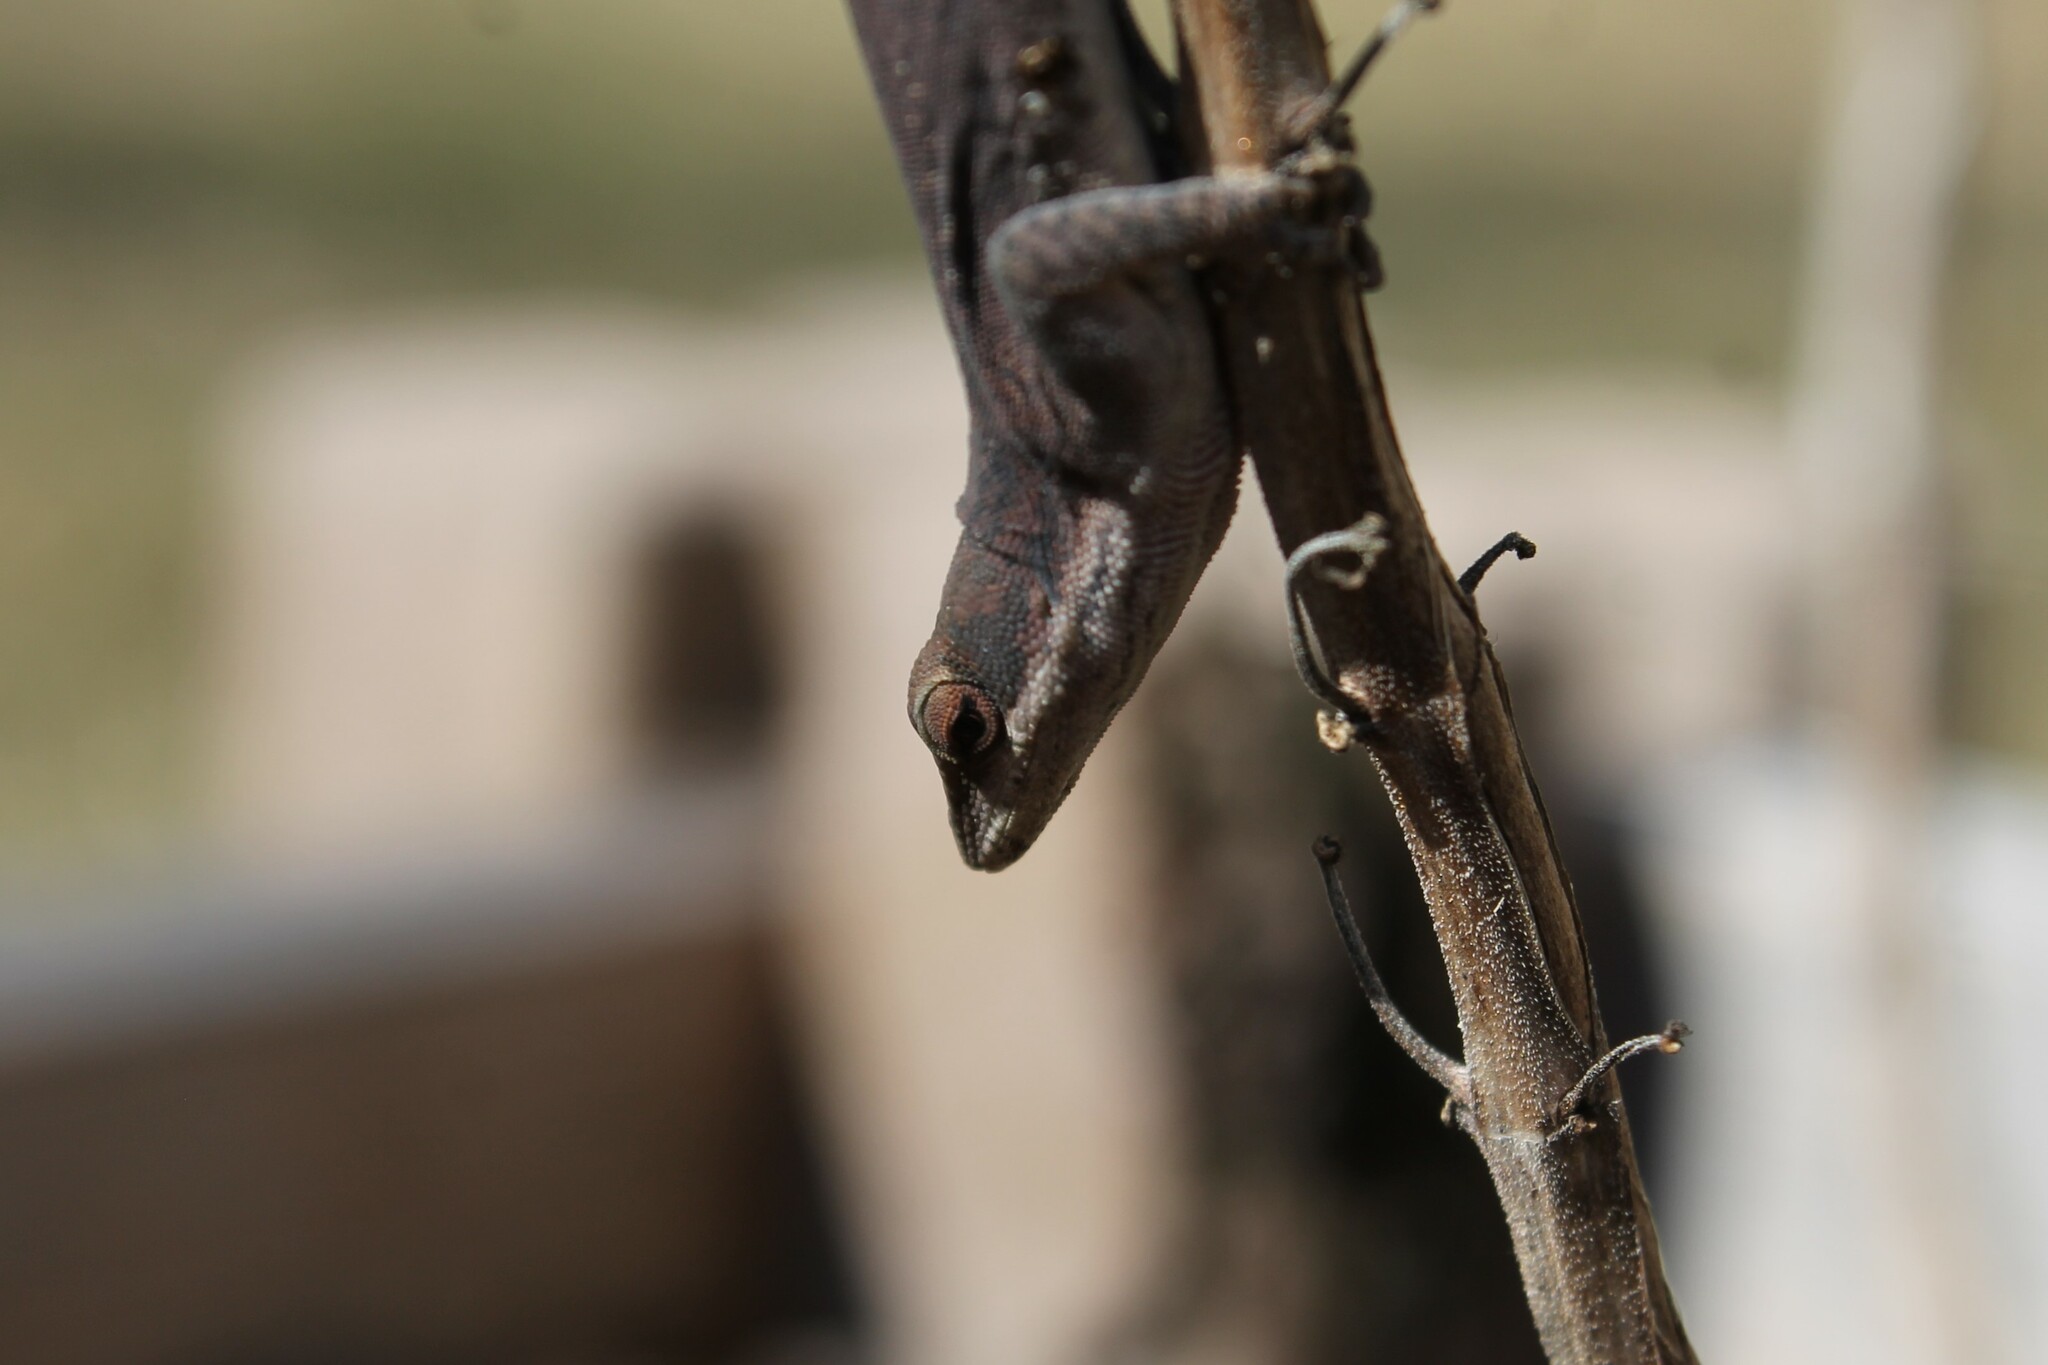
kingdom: Animalia
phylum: Chordata
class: Squamata
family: Dactyloidae
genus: Anolis
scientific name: Anolis carolinensis
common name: Green anole
